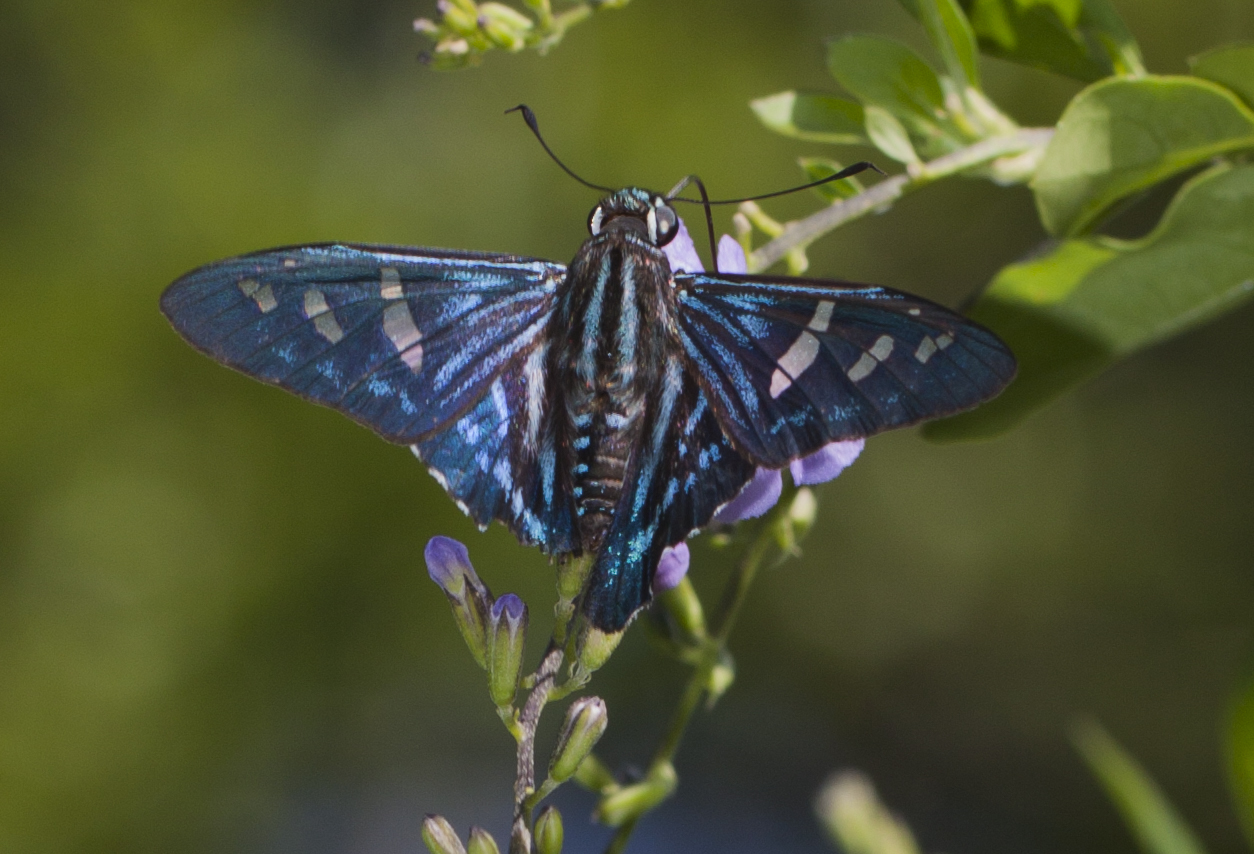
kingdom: Animalia
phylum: Arthropoda
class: Insecta
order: Lepidoptera
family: Hesperiidae
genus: Phocides
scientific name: Phocides pigmalion
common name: Mangrove skipper
